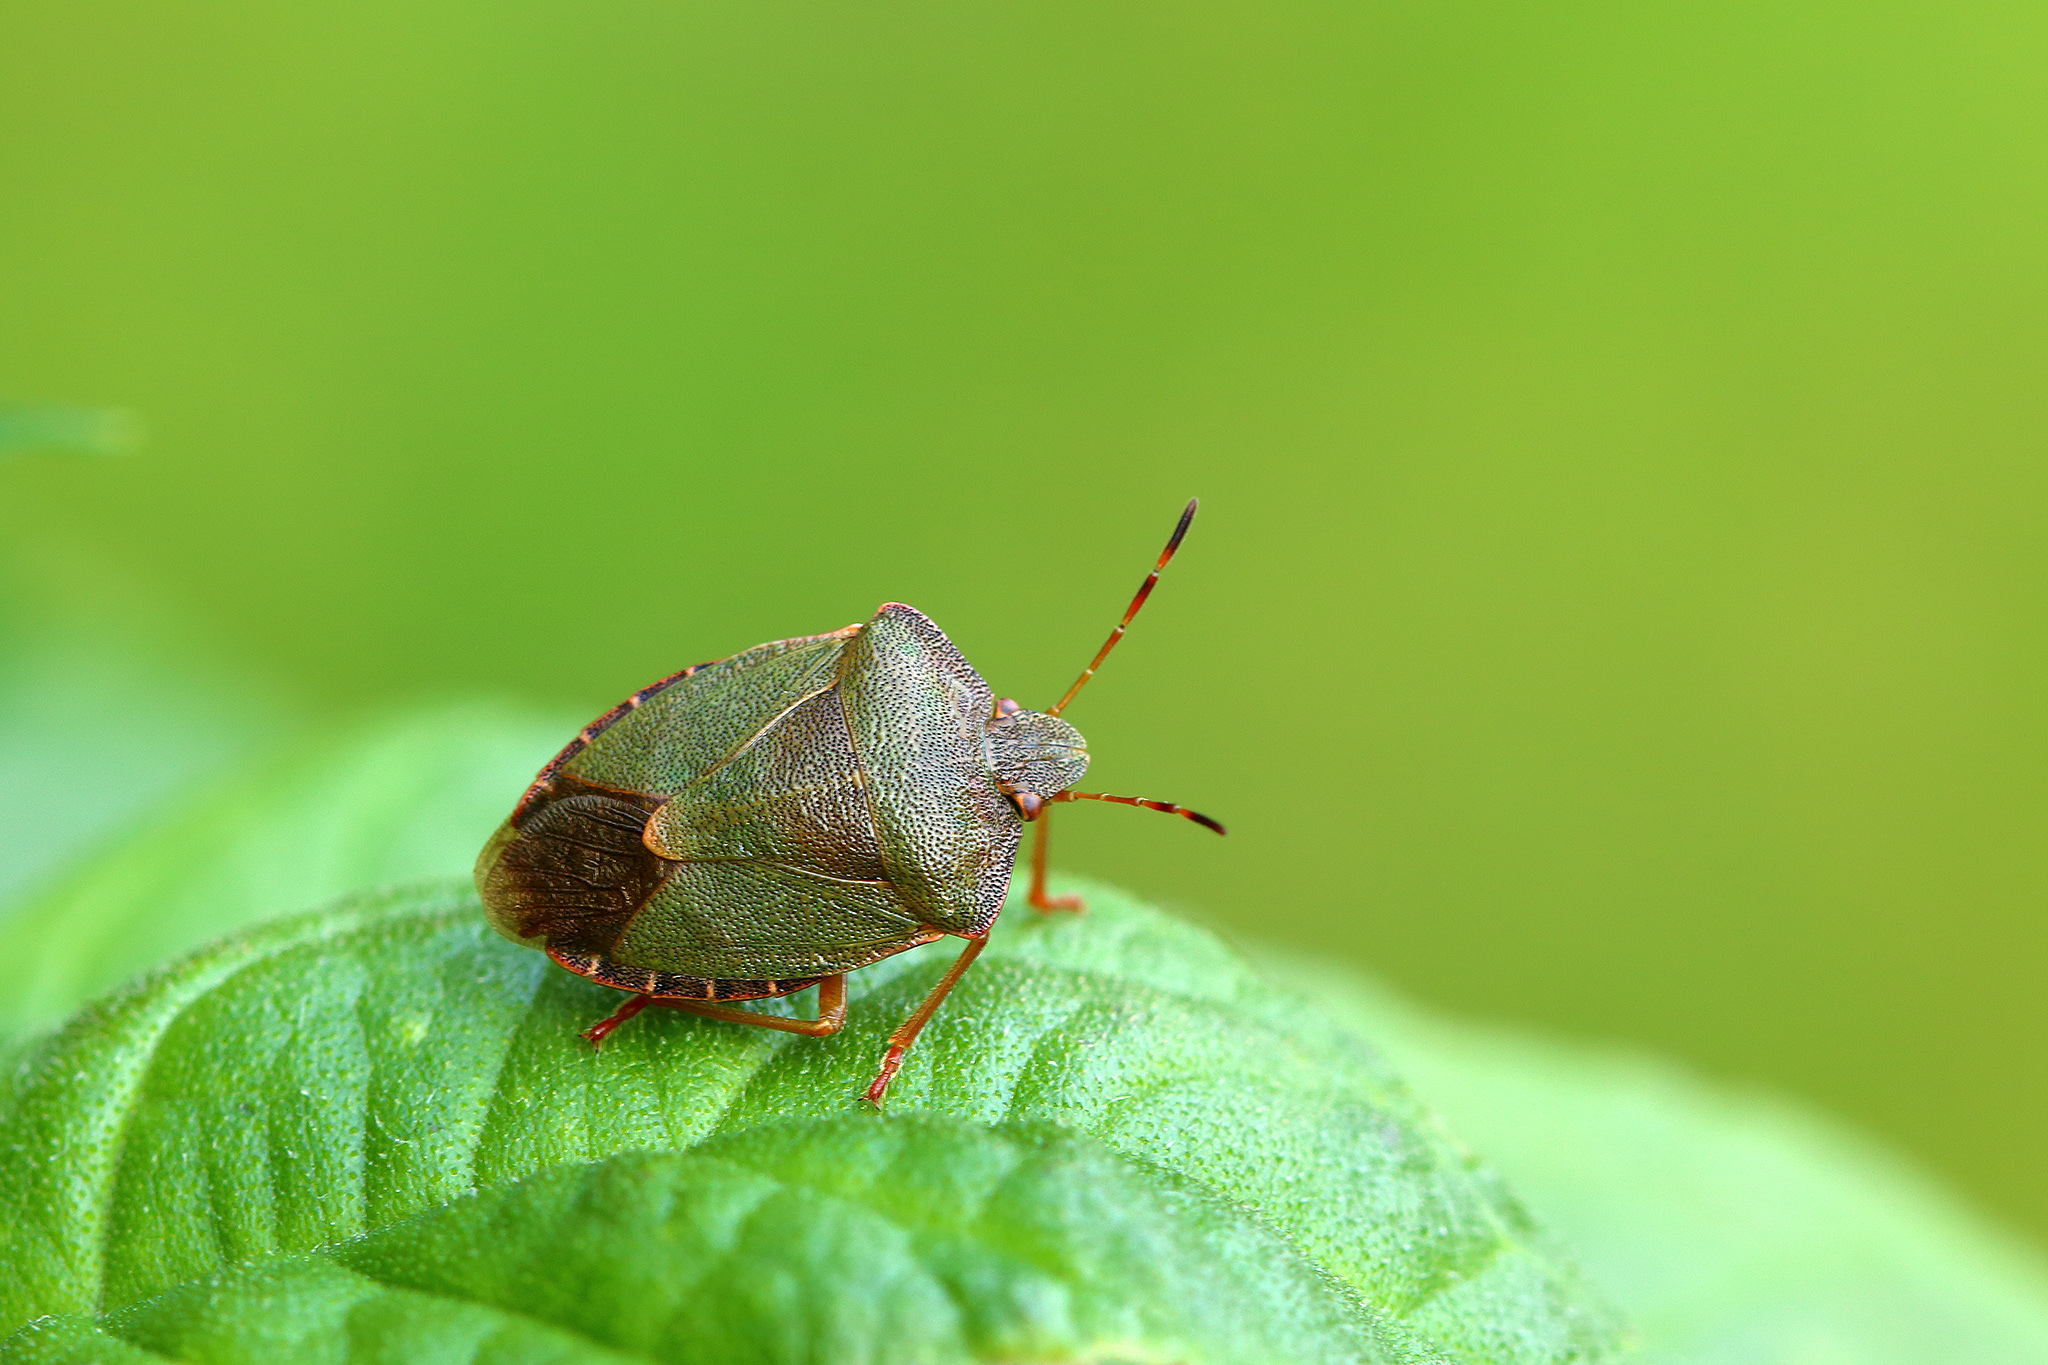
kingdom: Animalia
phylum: Arthropoda
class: Insecta
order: Hemiptera
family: Pentatomidae
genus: Palomena
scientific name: Palomena prasina
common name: Green shieldbug
